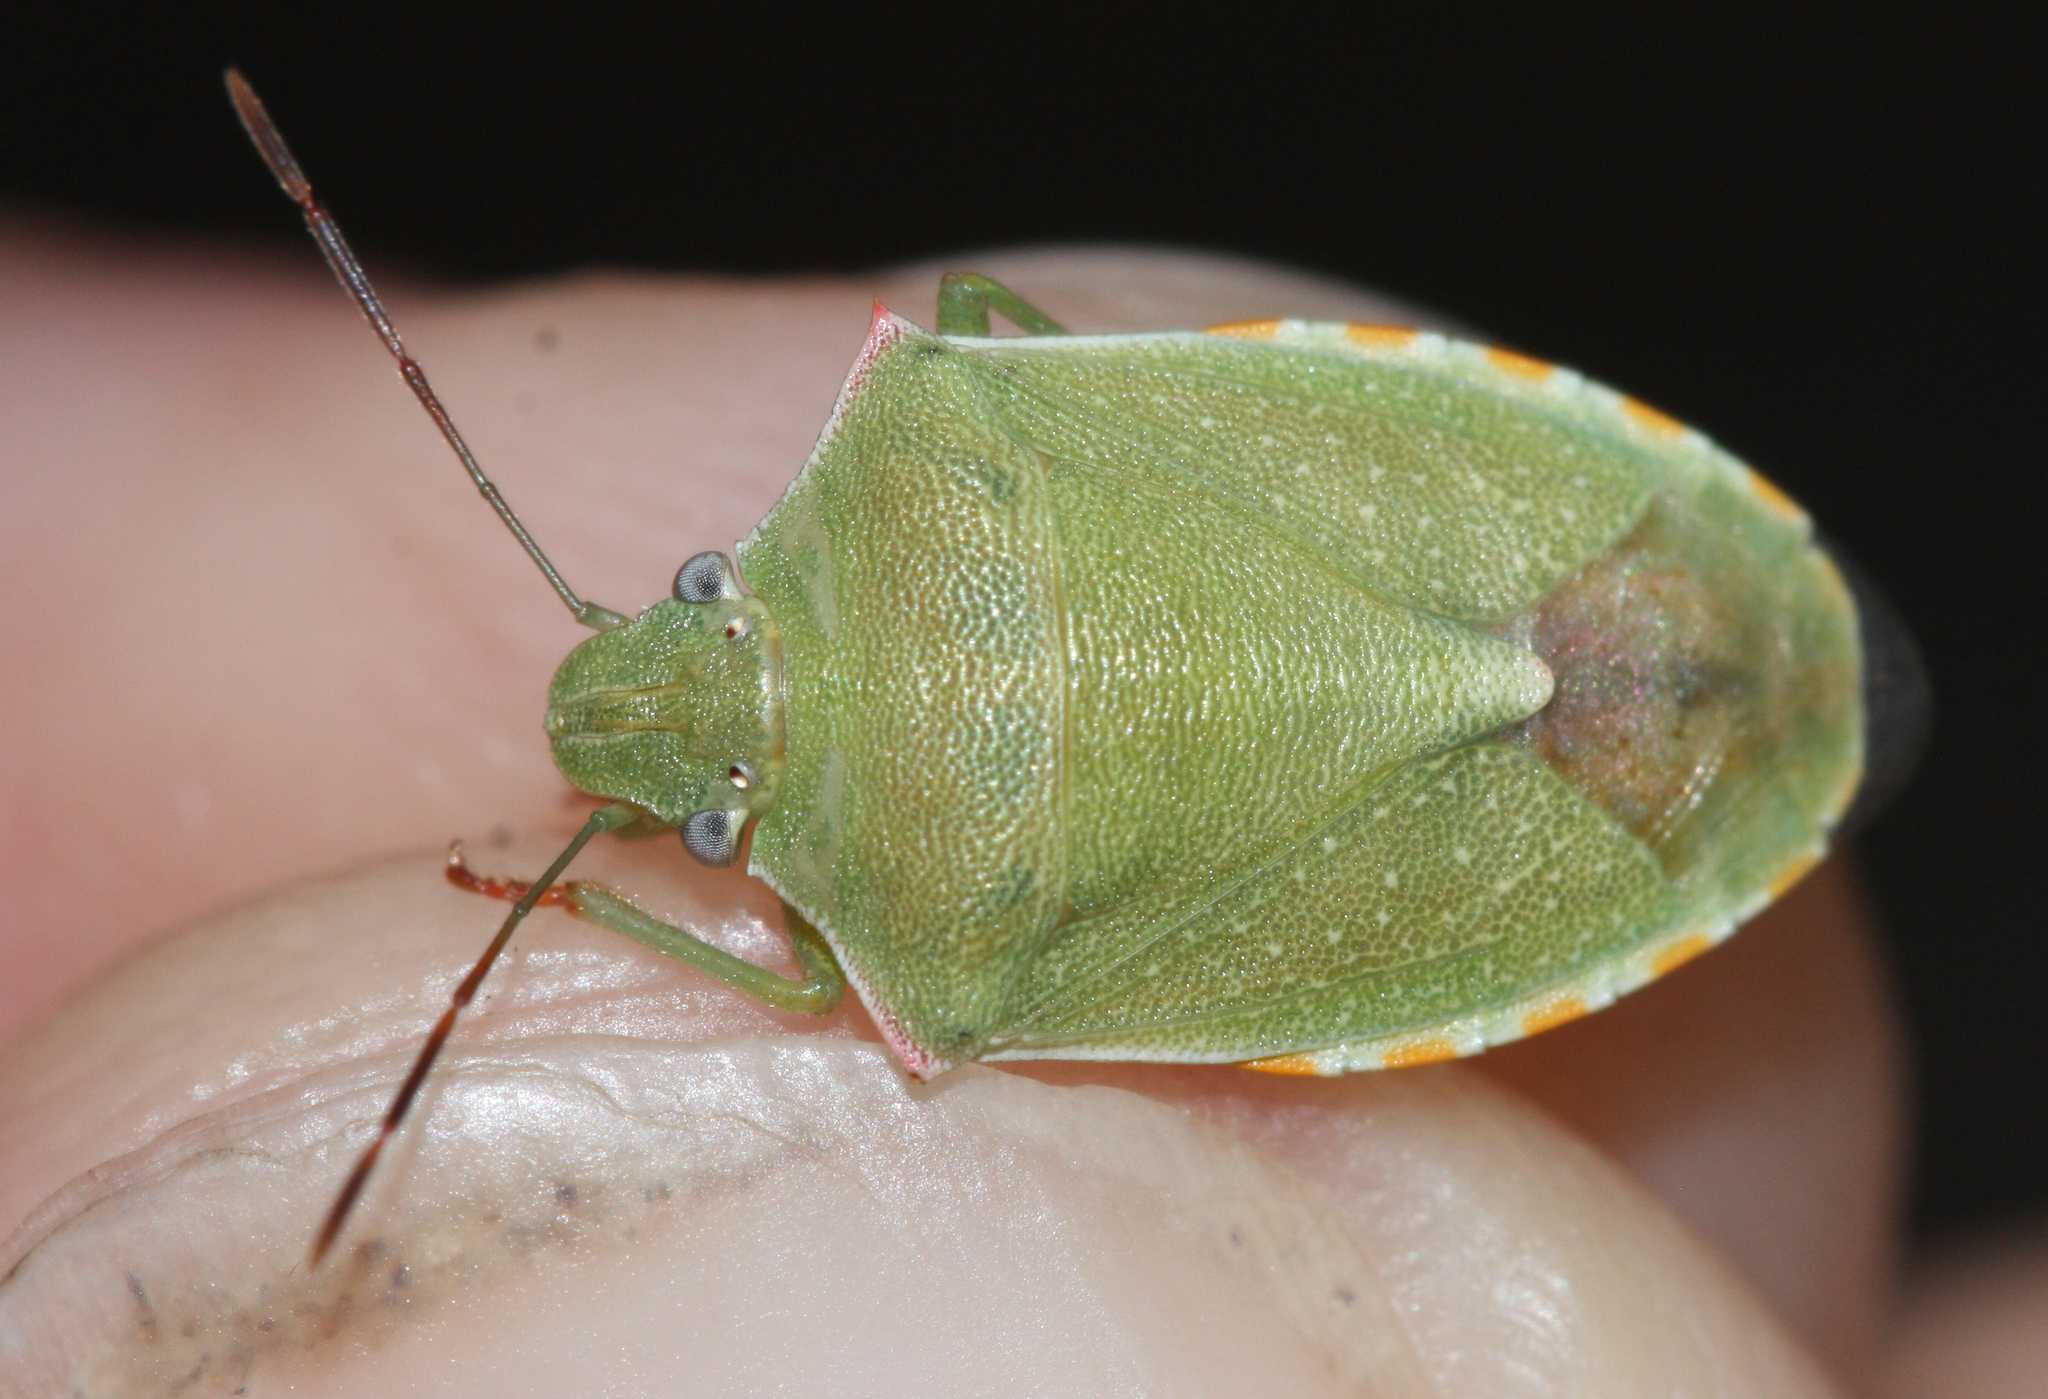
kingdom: Animalia
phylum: Arthropoda
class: Insecta
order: Hemiptera
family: Pentatomidae
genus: Thyanta
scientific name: Thyanta accerra
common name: Stink bug
